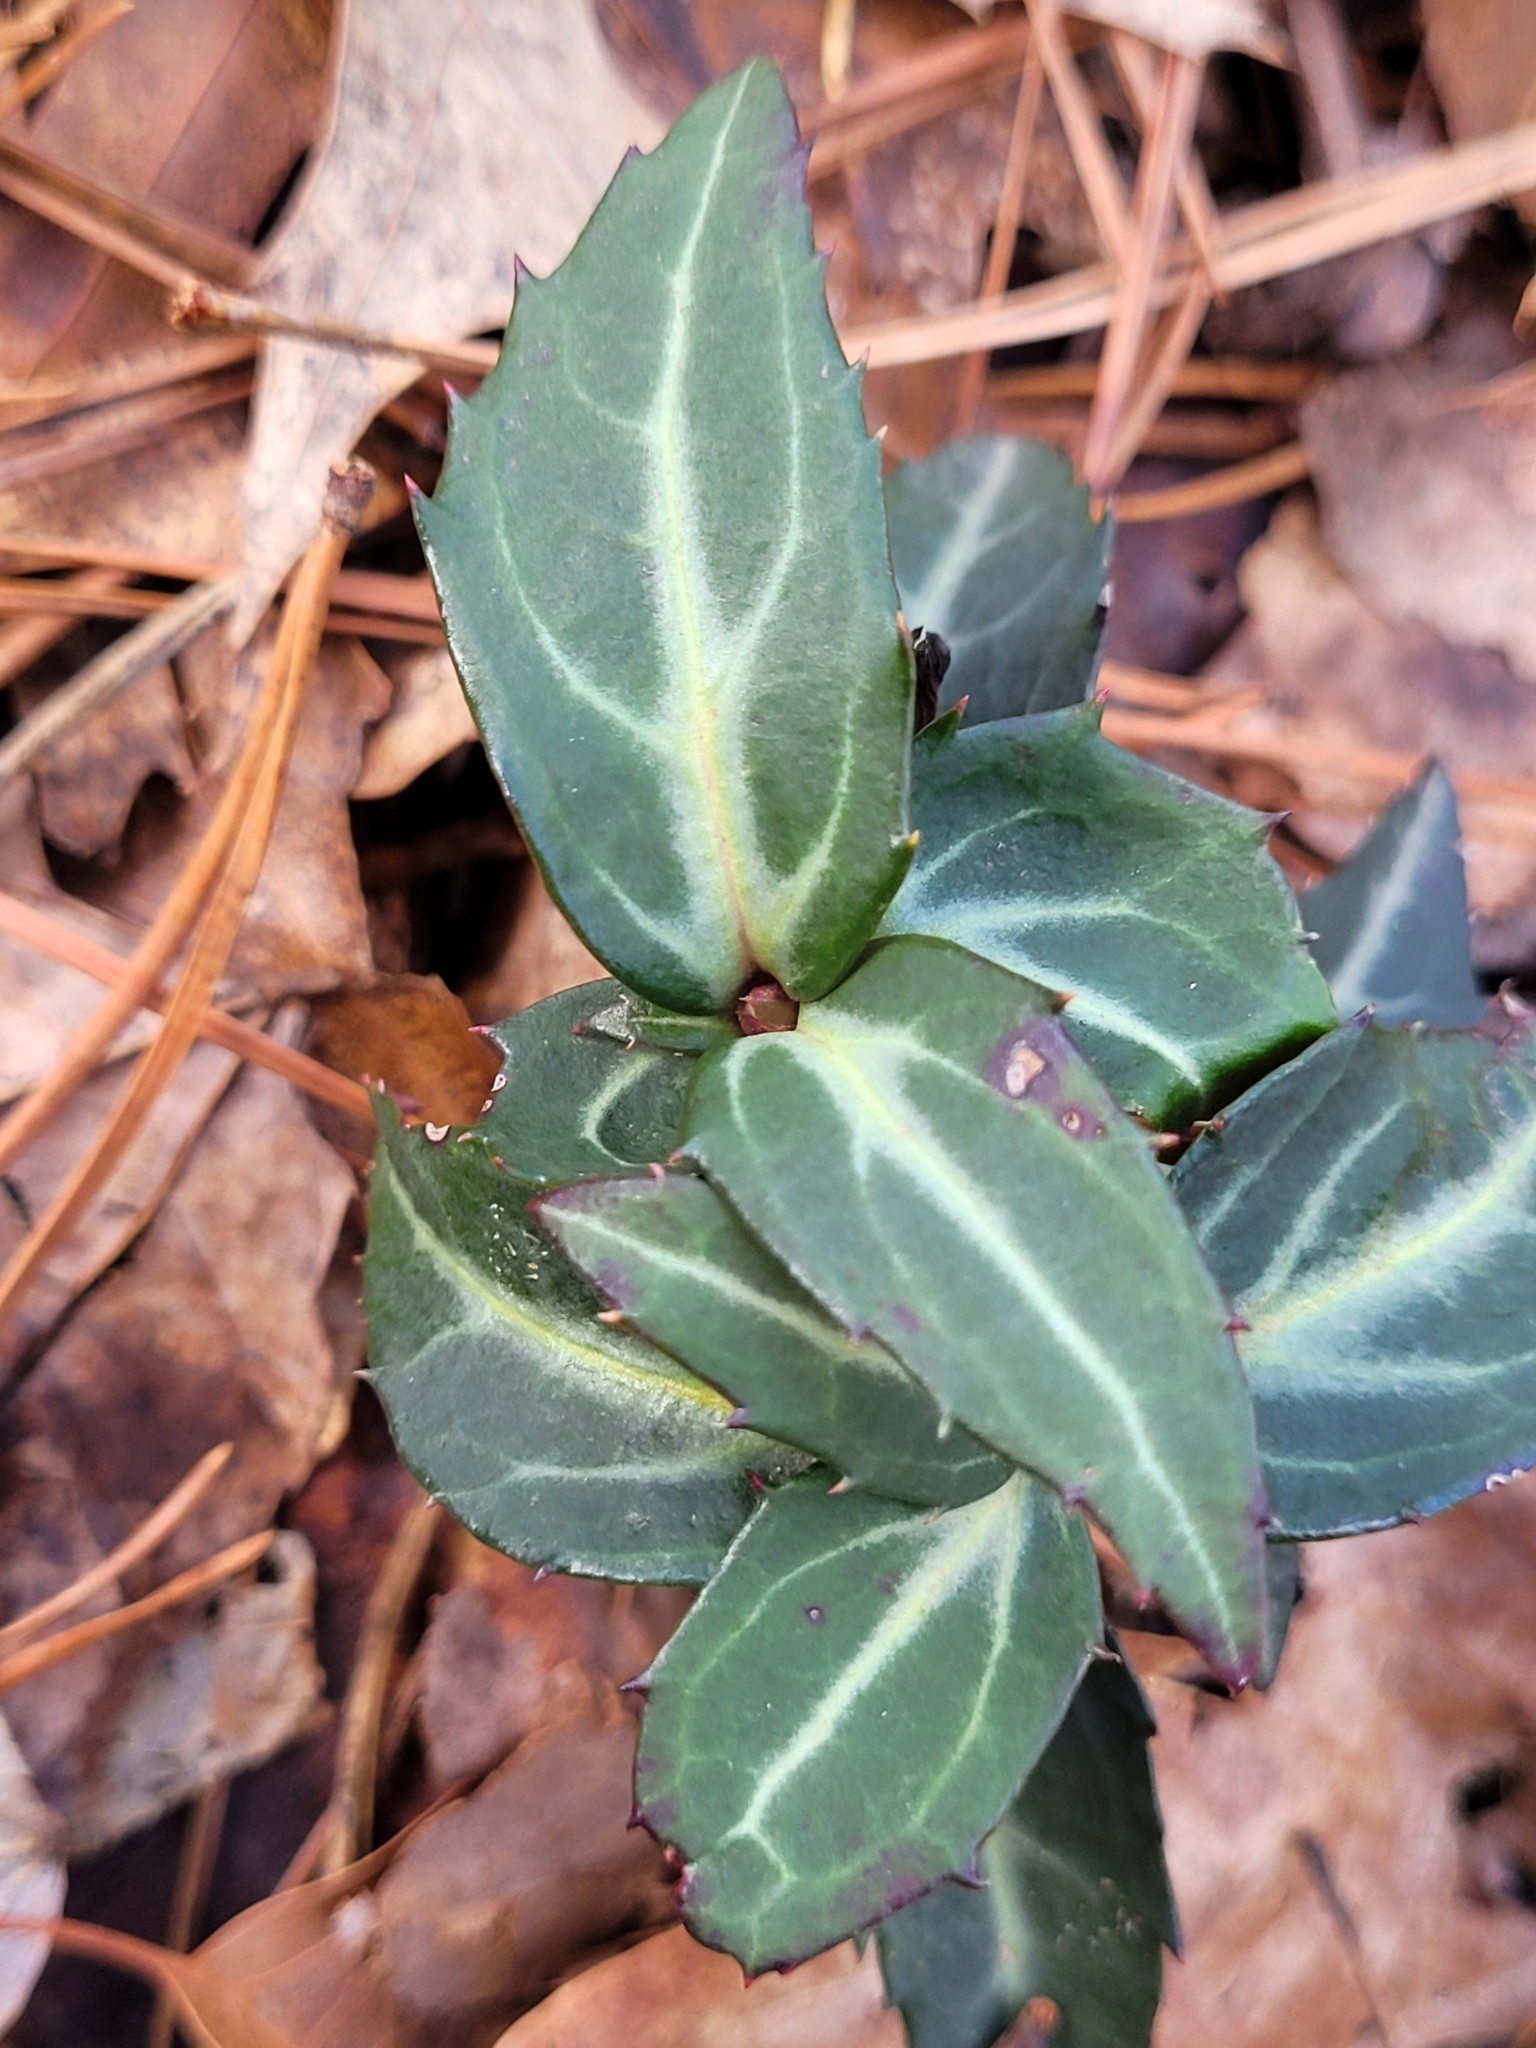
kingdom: Plantae
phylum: Tracheophyta
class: Magnoliopsida
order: Ericales
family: Ericaceae
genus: Chimaphila
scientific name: Chimaphila maculata
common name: Spotted pipsissewa
